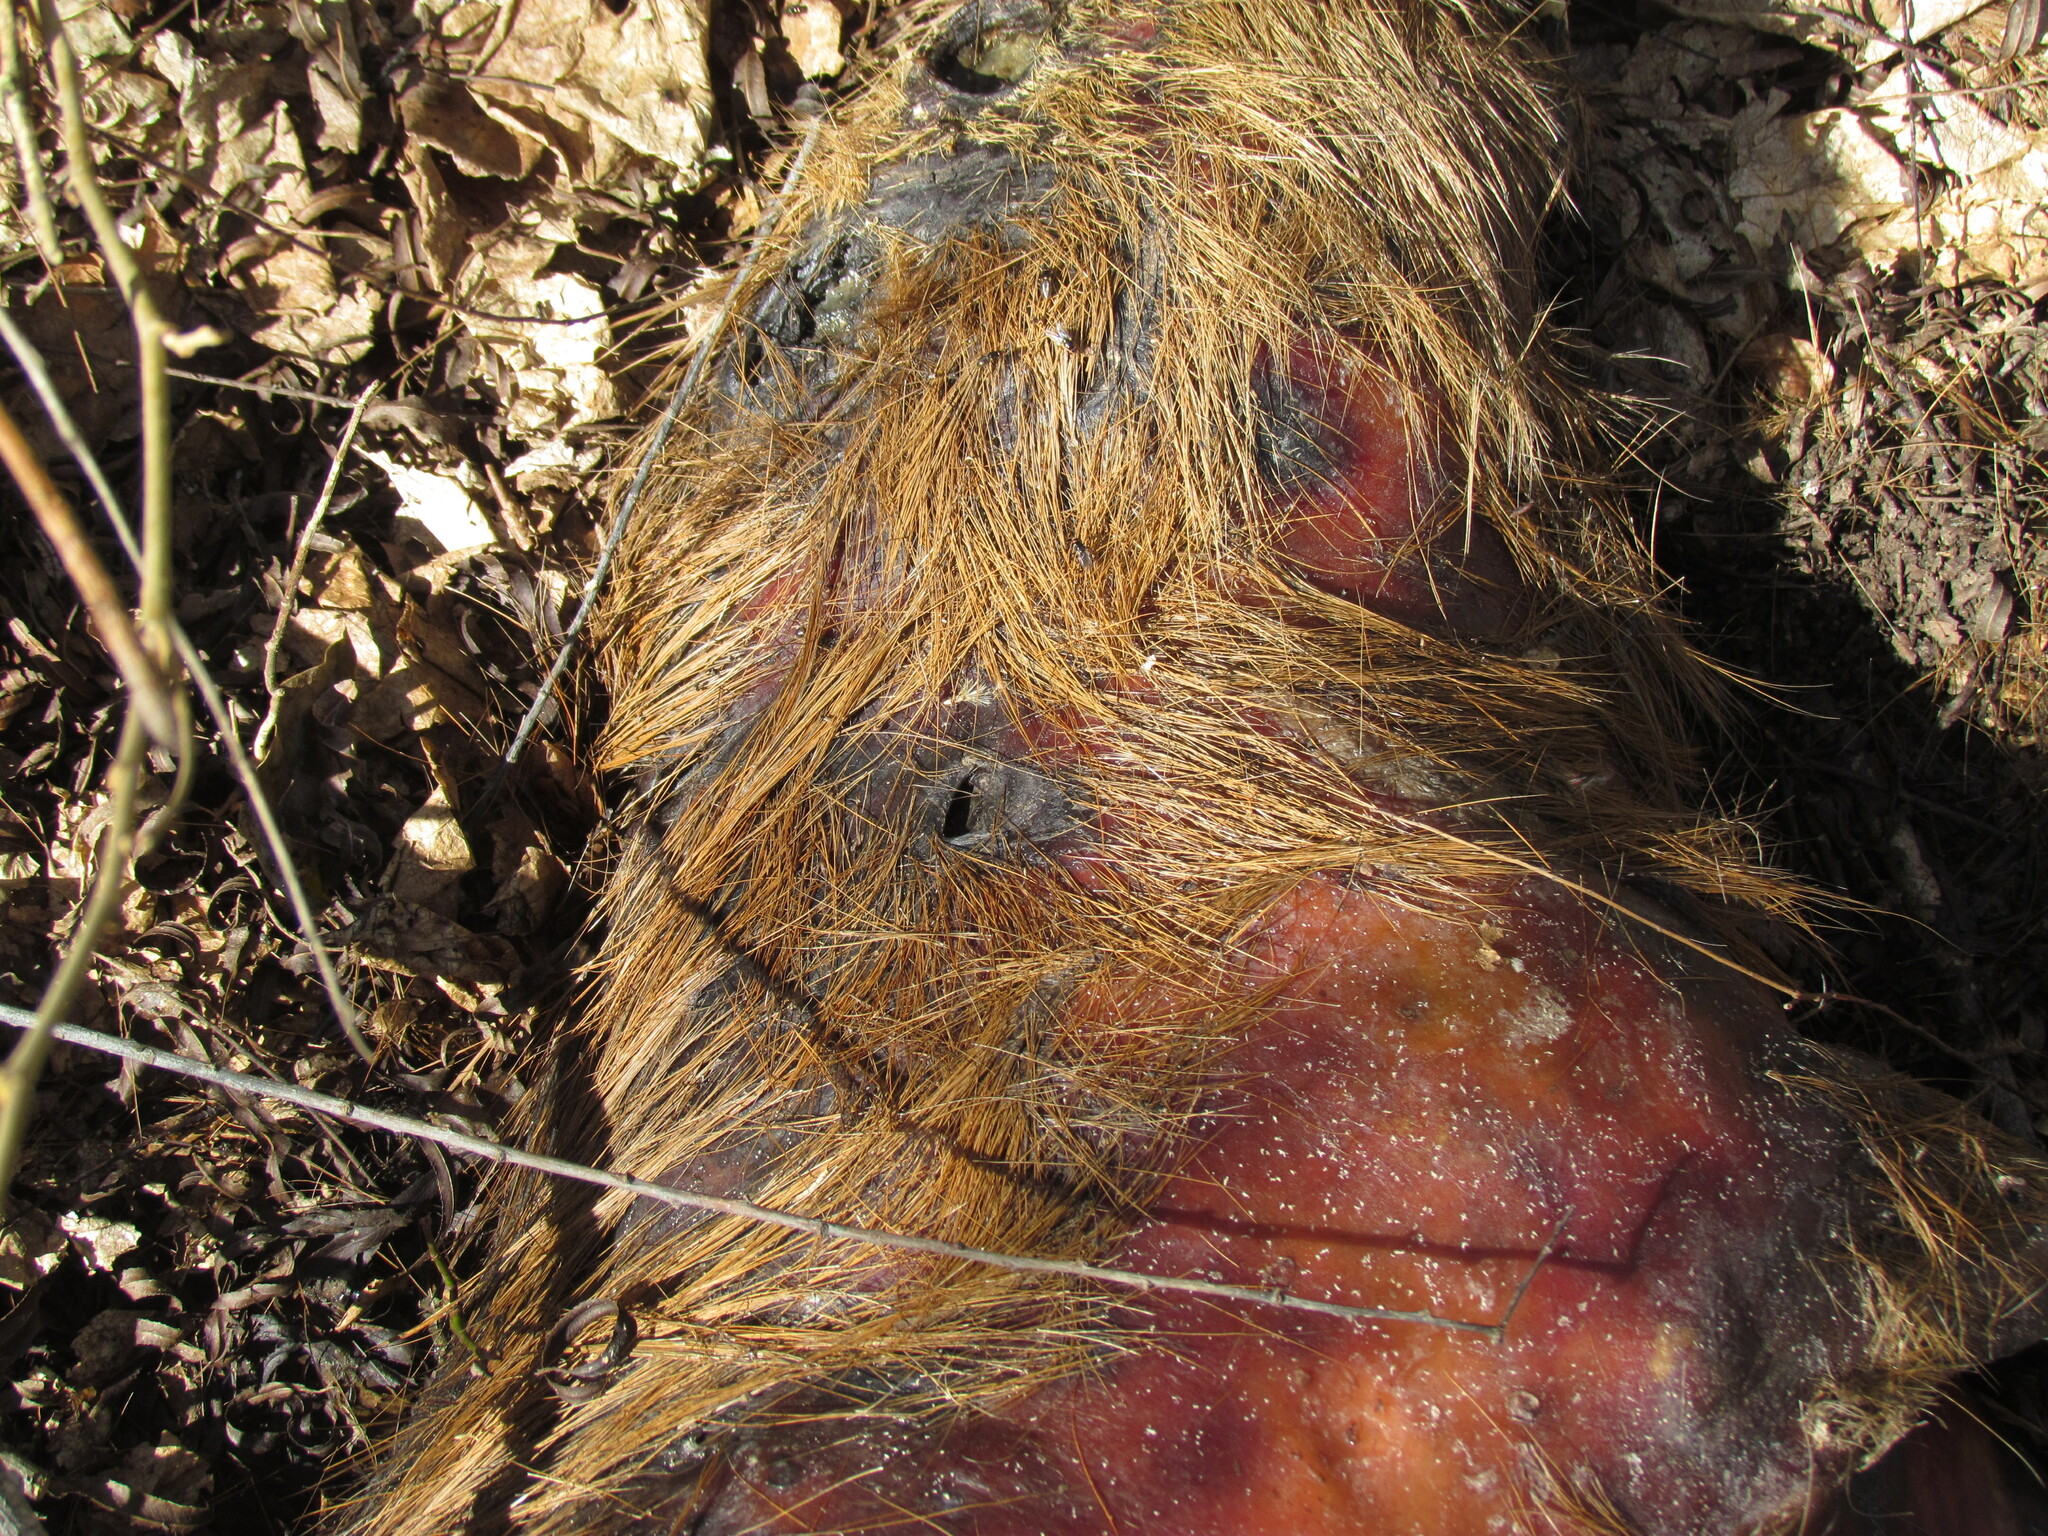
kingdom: Animalia
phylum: Chordata
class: Mammalia
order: Rodentia
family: Caviidae
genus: Hydrochoerus
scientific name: Hydrochoerus hydrochaeris
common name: Capybara
